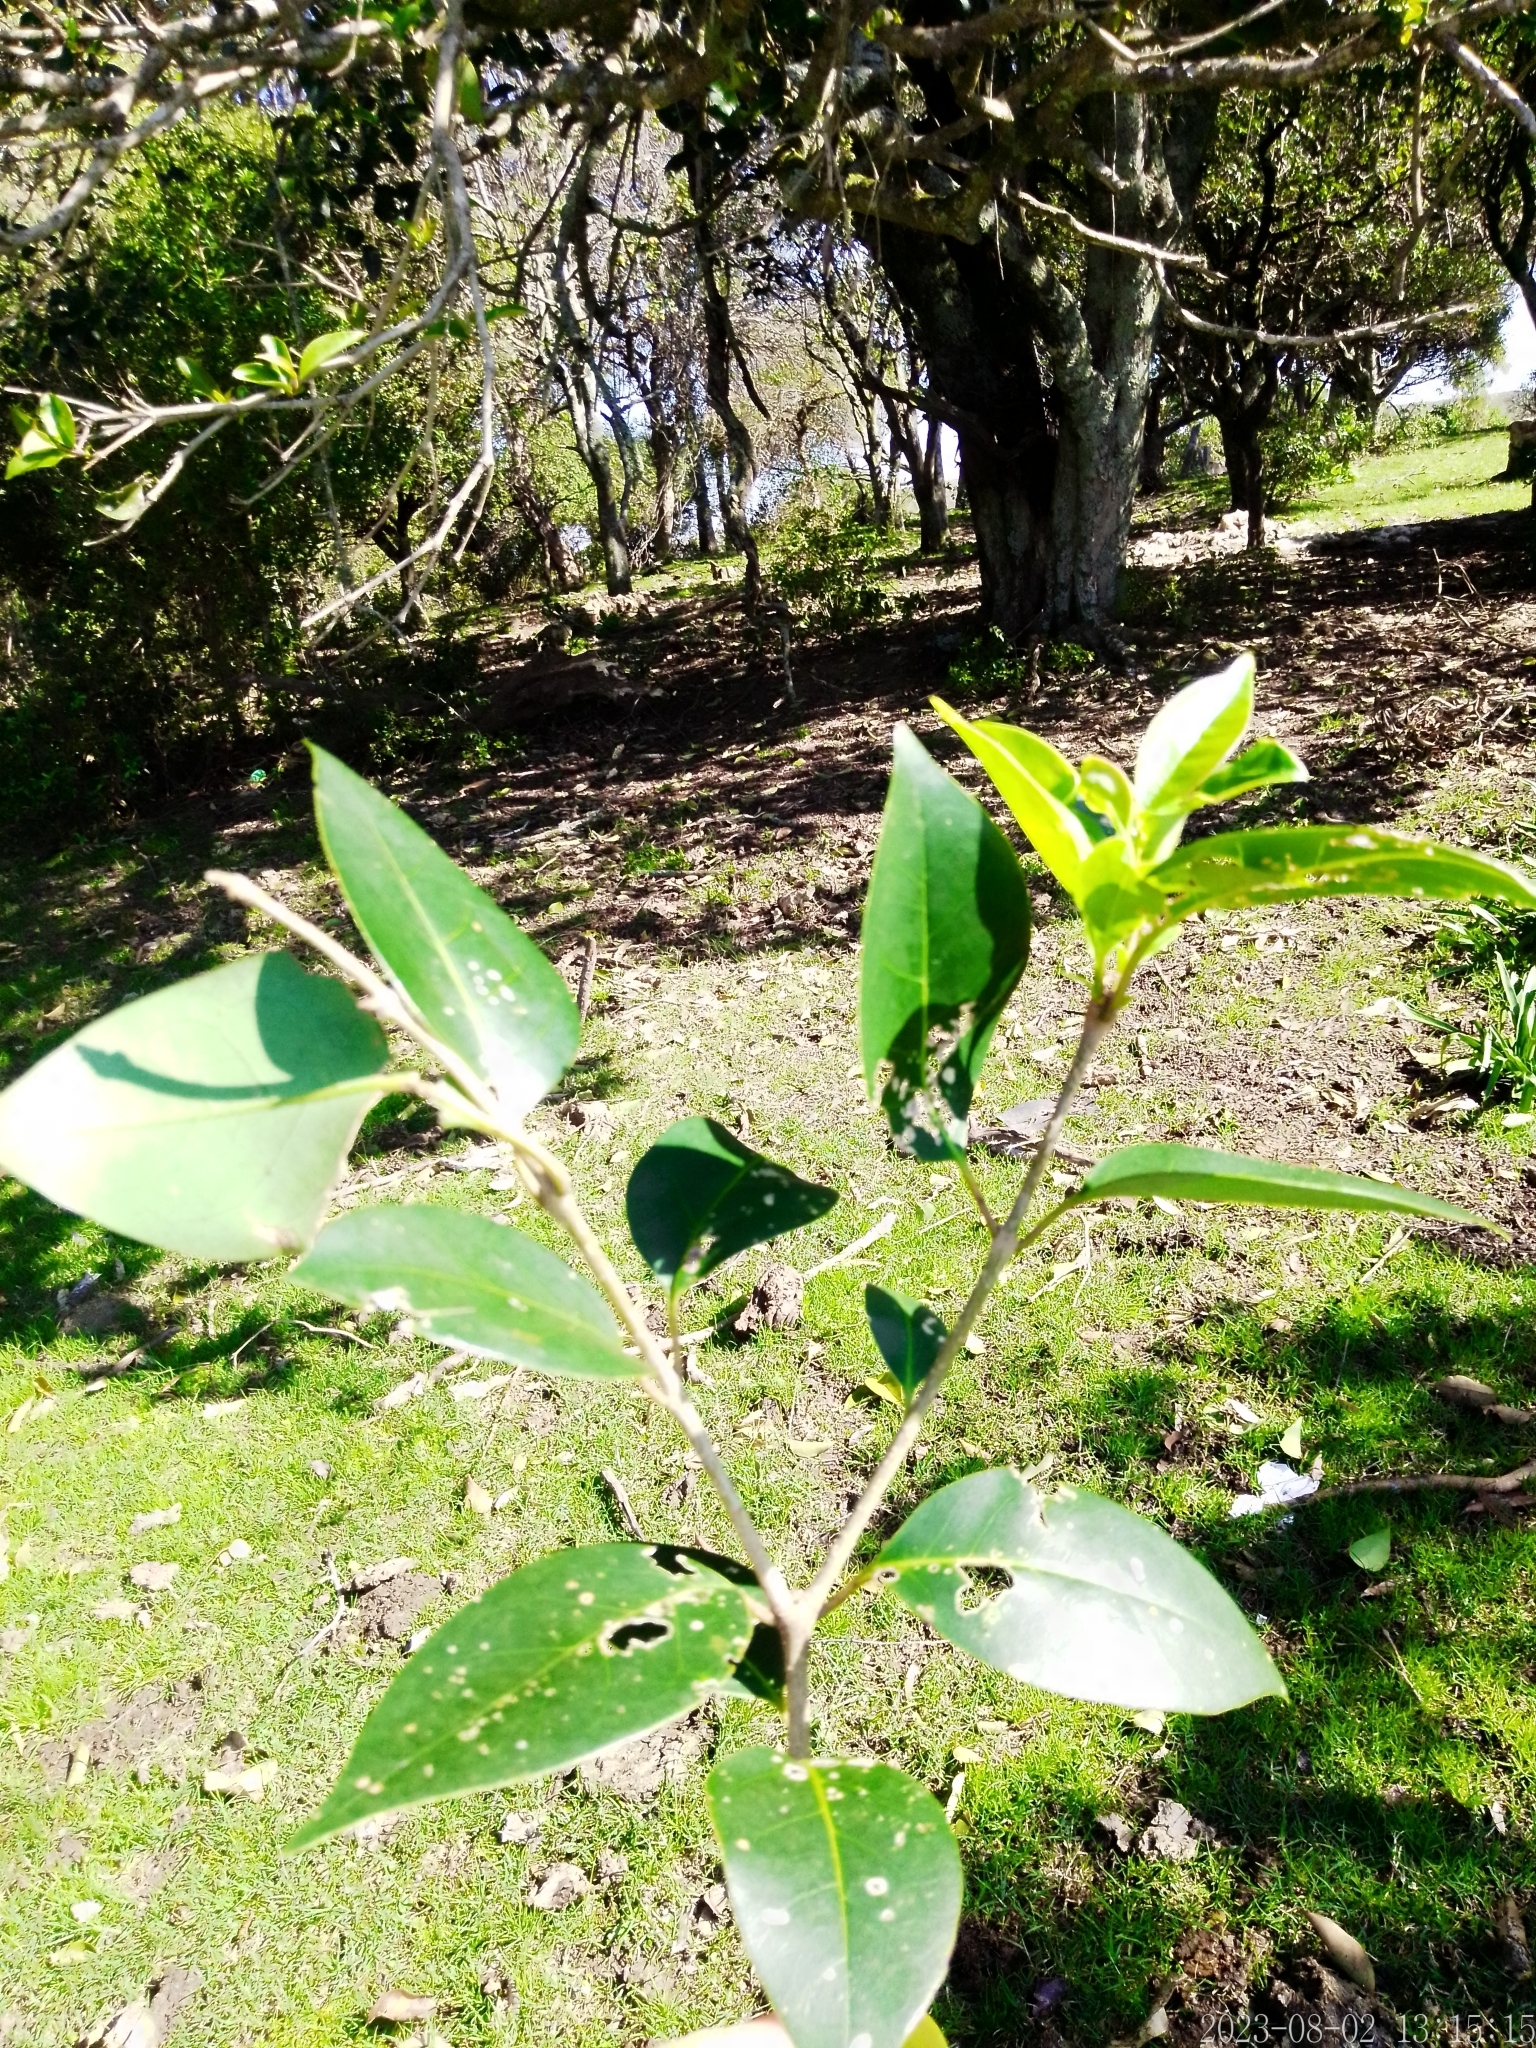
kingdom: Plantae
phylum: Tracheophyta
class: Magnoliopsida
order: Lamiales
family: Oleaceae
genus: Ligustrum
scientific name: Ligustrum lucidum
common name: Glossy privet
